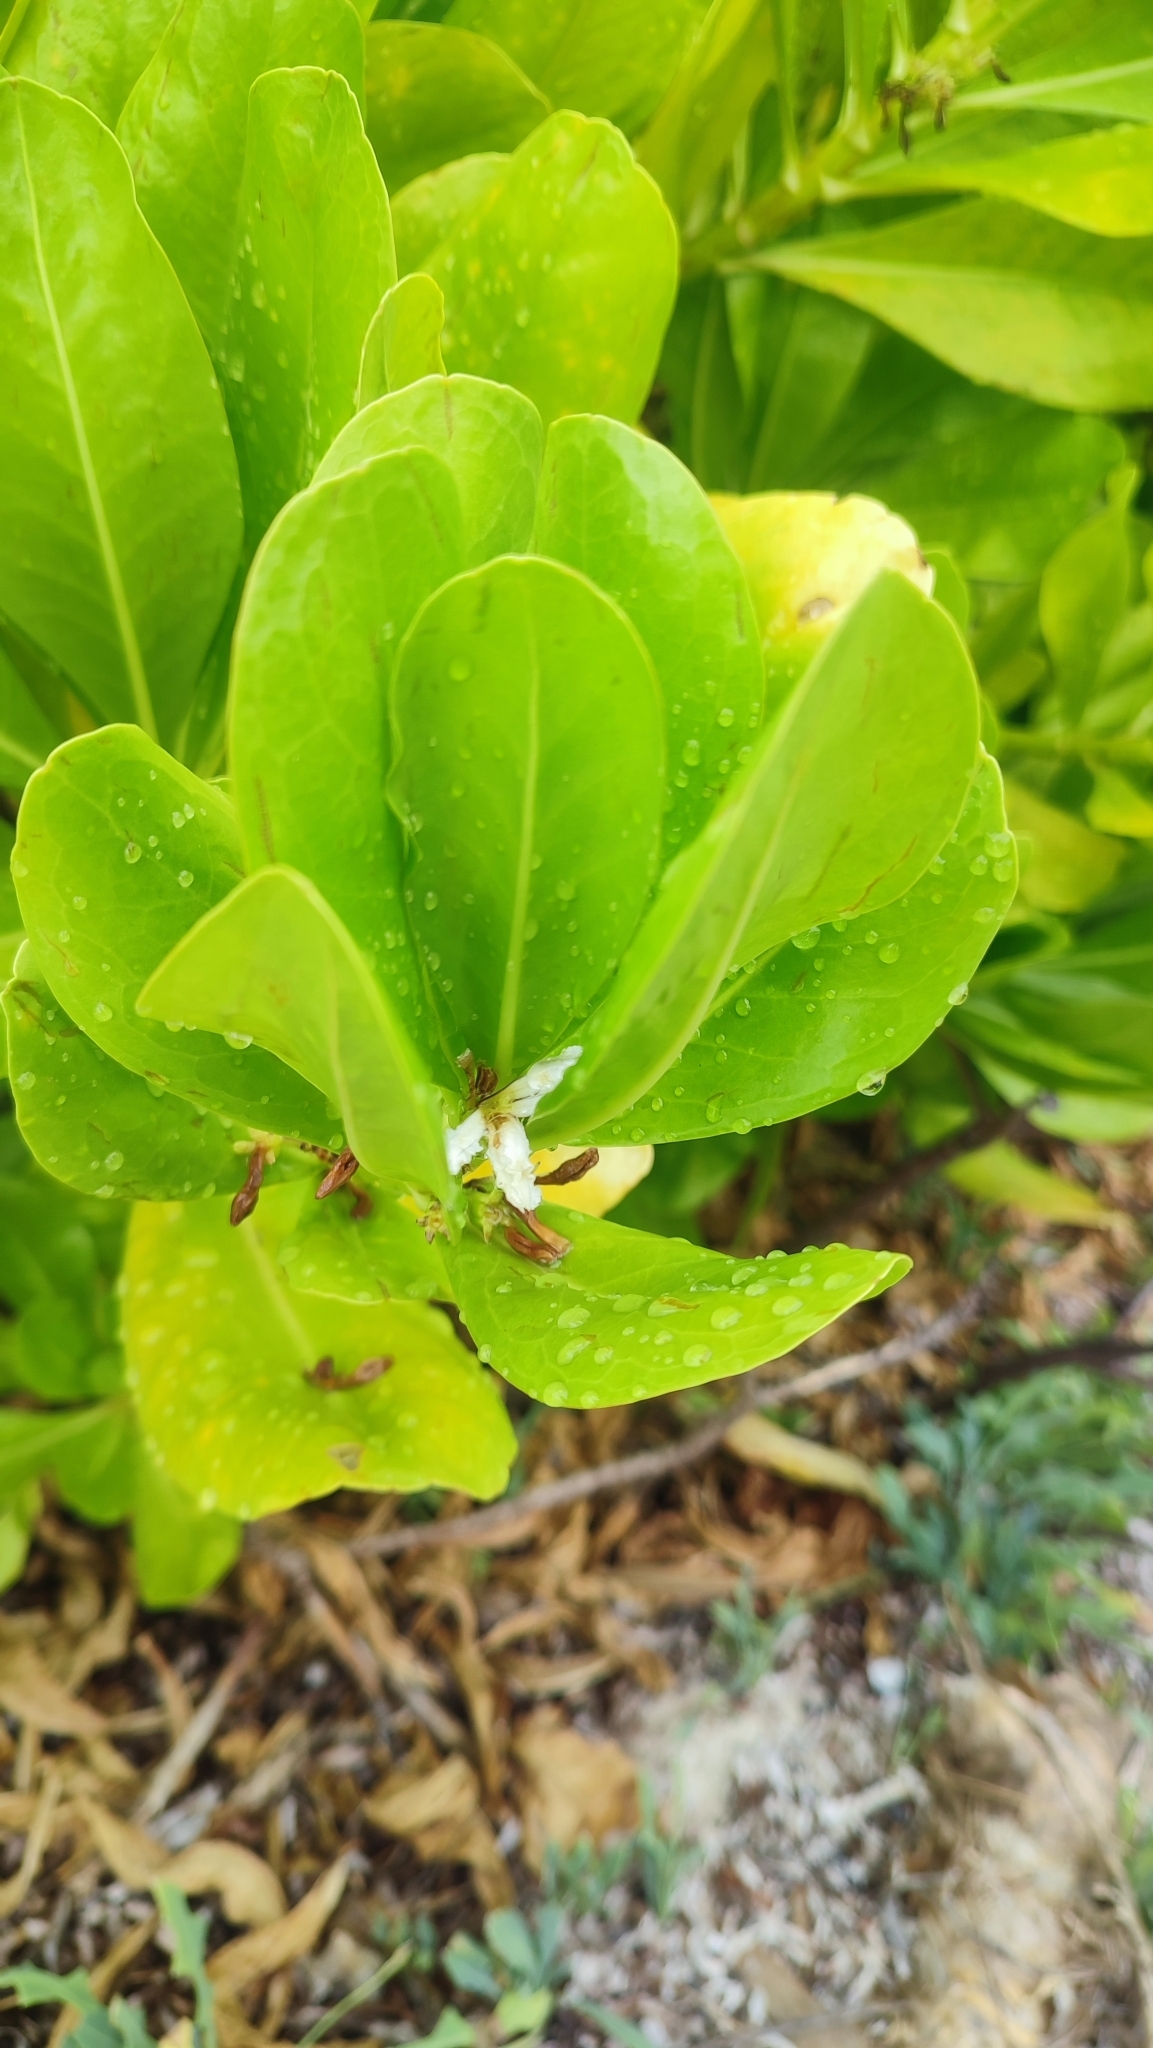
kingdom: Plantae
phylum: Tracheophyta
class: Magnoliopsida
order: Asterales
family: Goodeniaceae
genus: Scaevola
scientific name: Scaevola taccada
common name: Sea lettucetree
